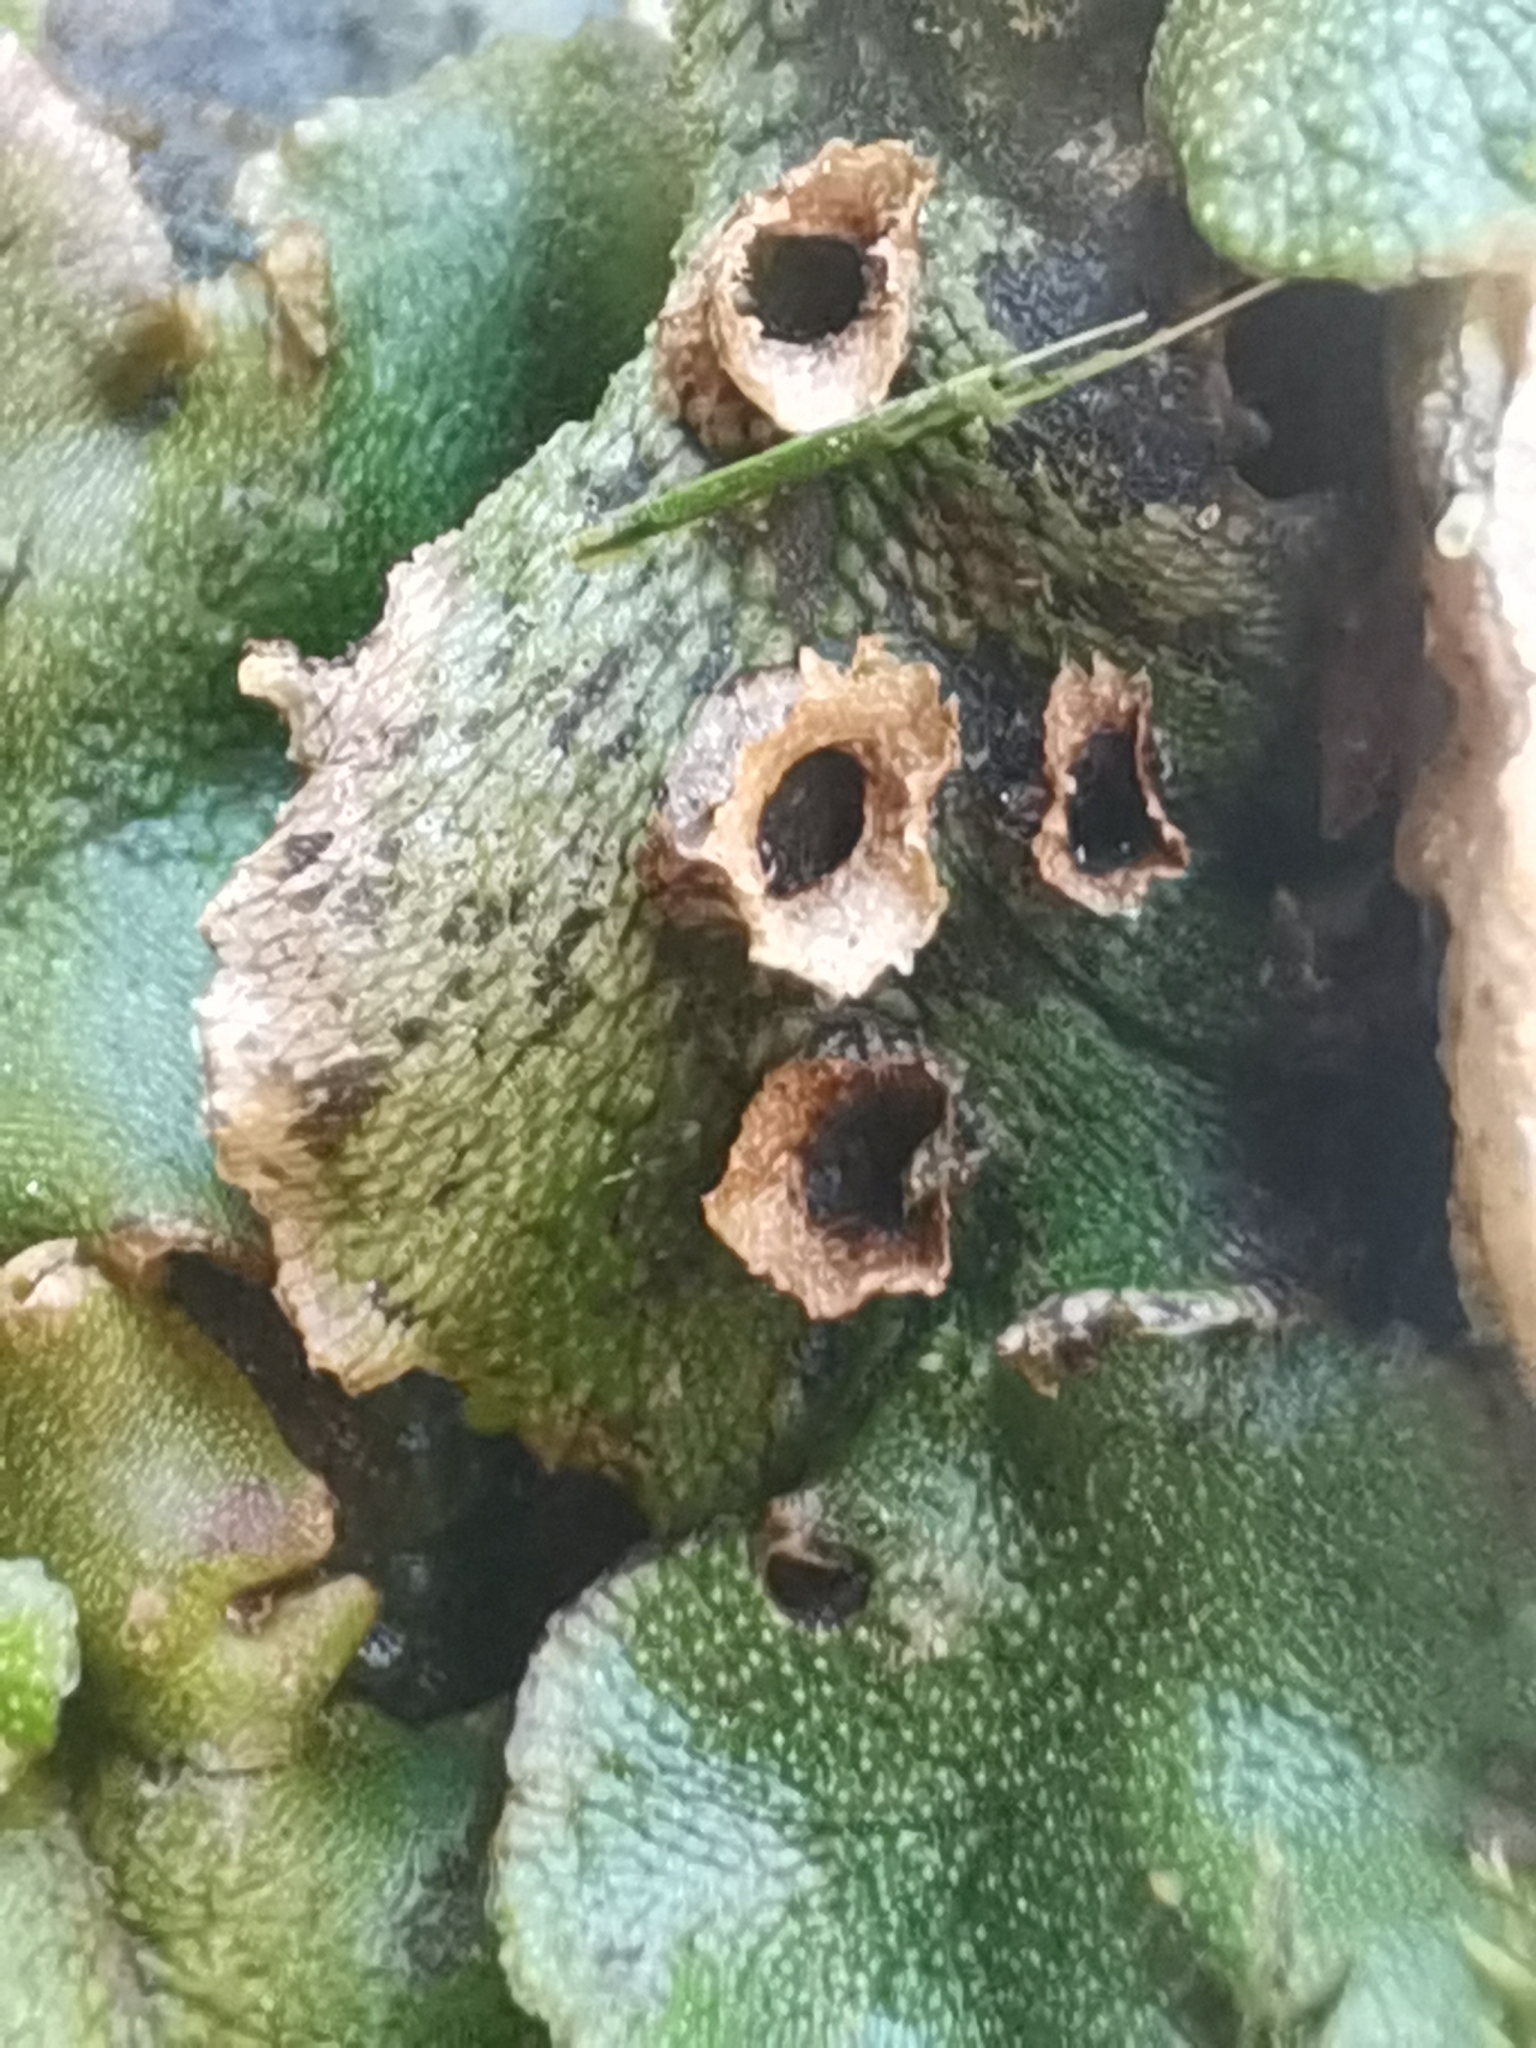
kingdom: Plantae
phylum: Marchantiophyta
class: Marchantiopsida
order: Marchantiales
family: Marchantiaceae
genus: Marchantia
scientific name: Marchantia polymorpha
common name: Common liverwort
